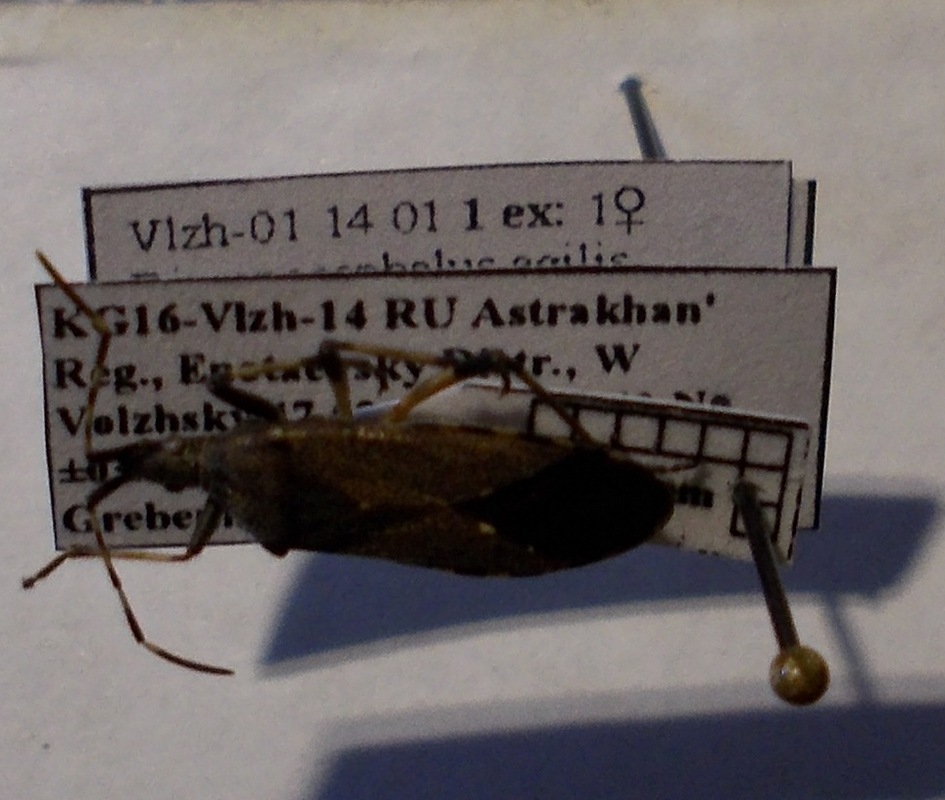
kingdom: Animalia
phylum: Arthropoda
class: Insecta
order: Hemiptera
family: Stenocephalidae
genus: Dicranocephalus
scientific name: Dicranocephalus agilis
